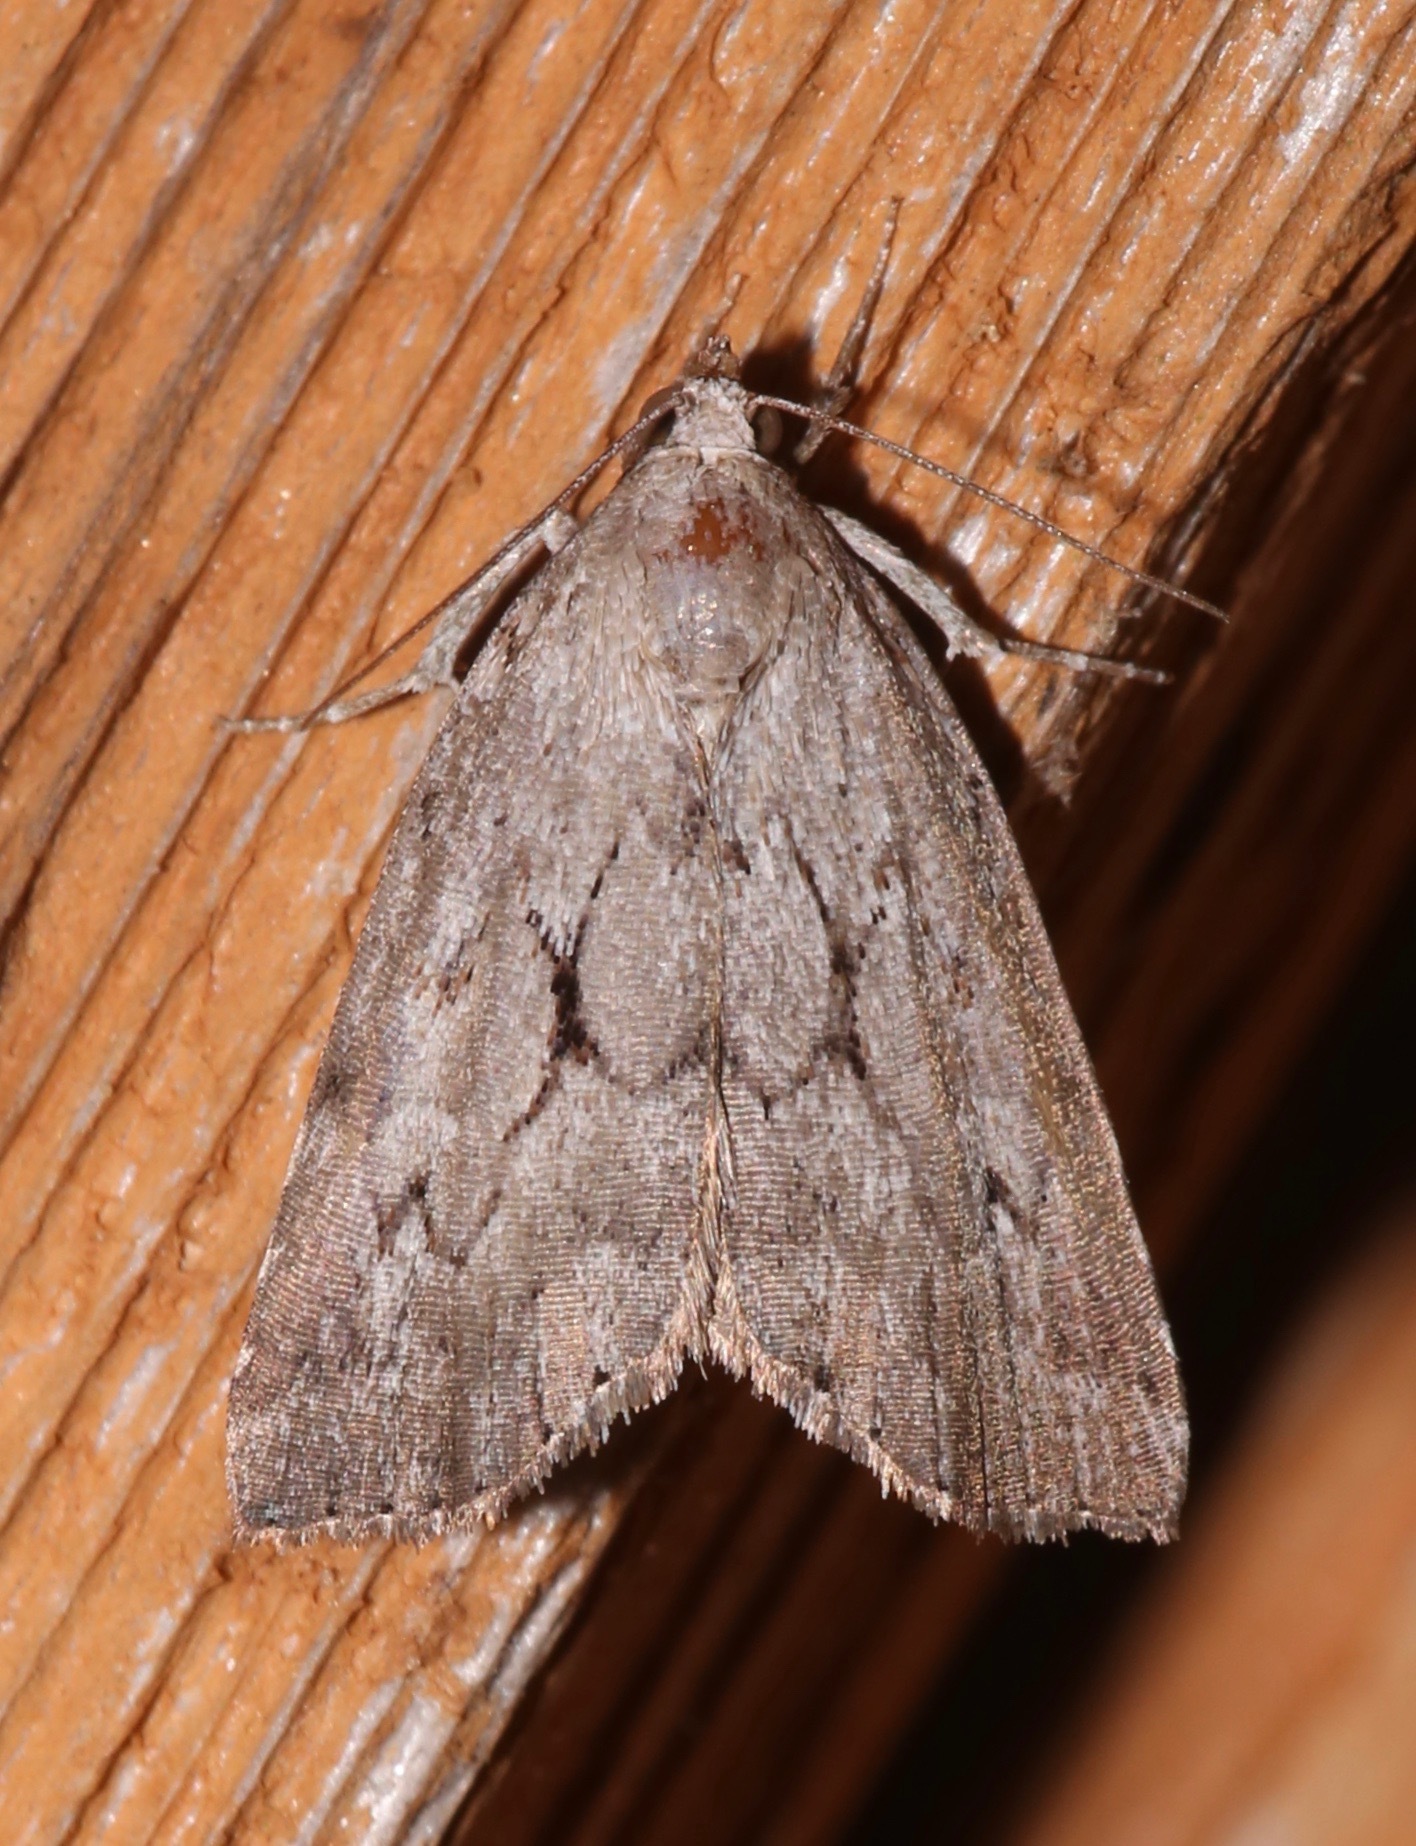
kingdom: Animalia
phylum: Arthropoda
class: Insecta
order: Lepidoptera
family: Erebidae
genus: Cutina
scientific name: Cutina albopunctella
